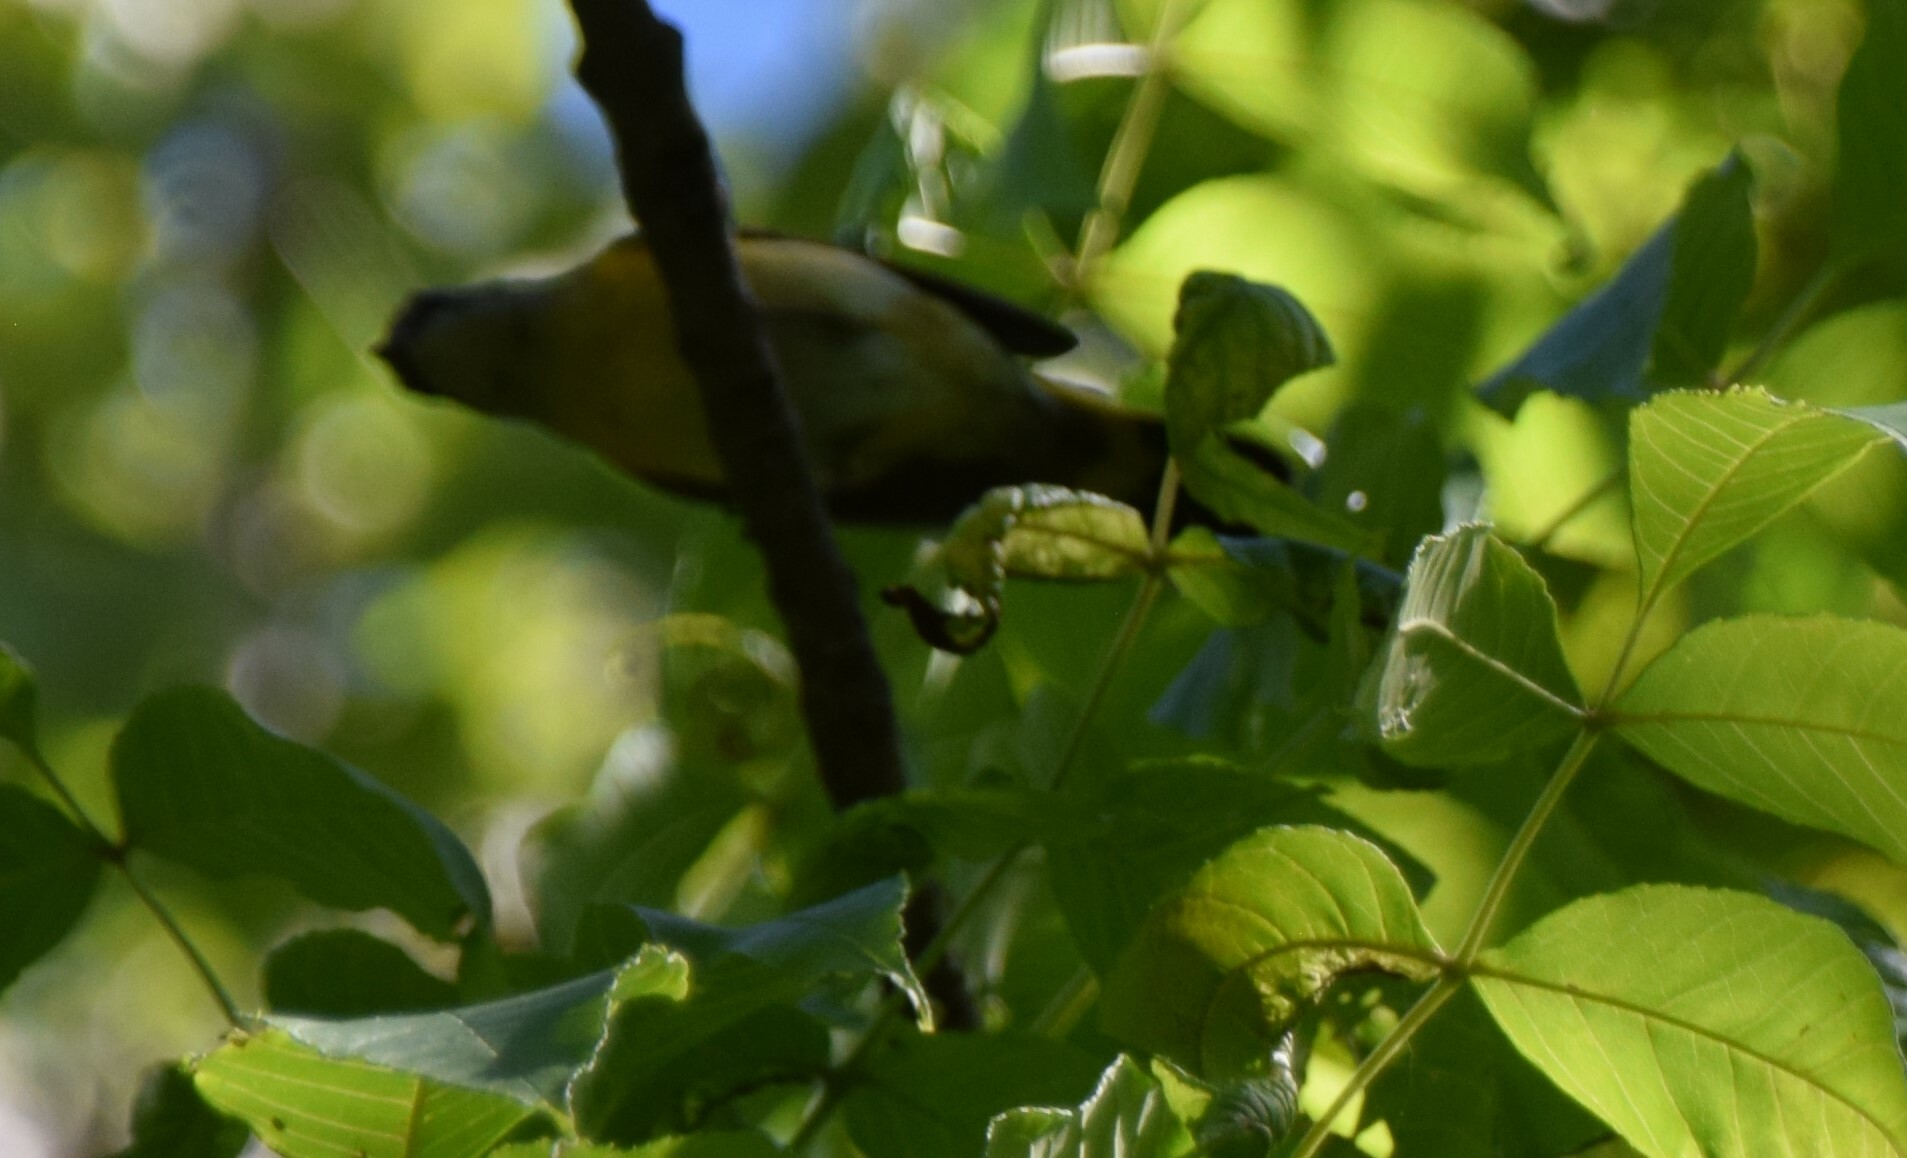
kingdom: Animalia
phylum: Chordata
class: Aves
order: Passeriformes
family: Parulidae
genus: Setophaga
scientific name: Setophaga ruticilla
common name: American redstart
